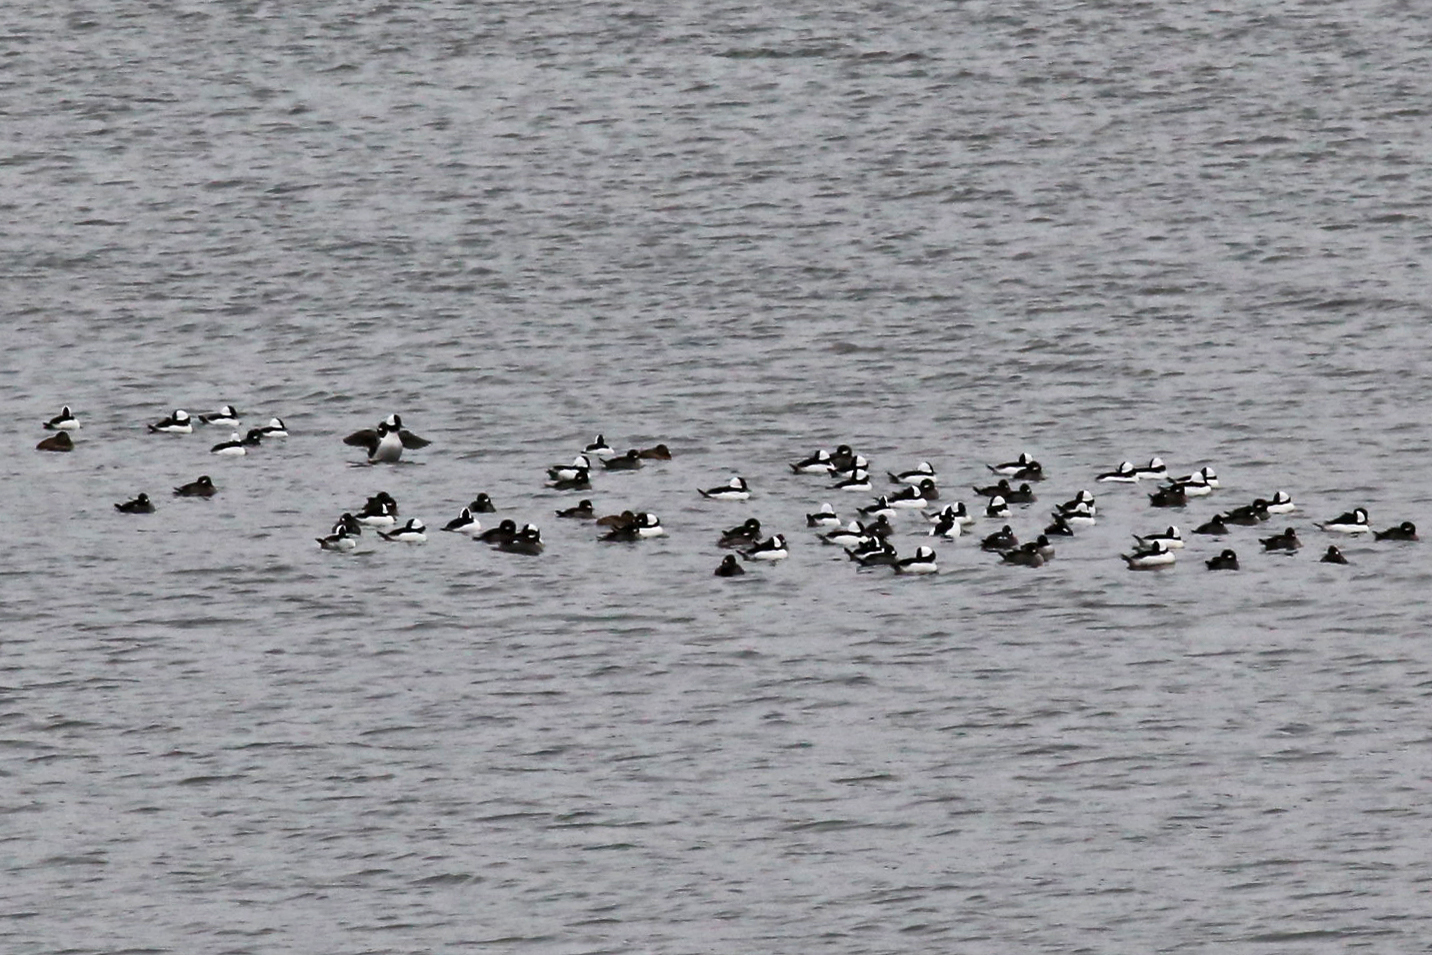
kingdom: Animalia
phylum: Chordata
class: Aves
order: Anseriformes
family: Anatidae
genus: Bucephala
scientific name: Bucephala albeola
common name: Bufflehead
